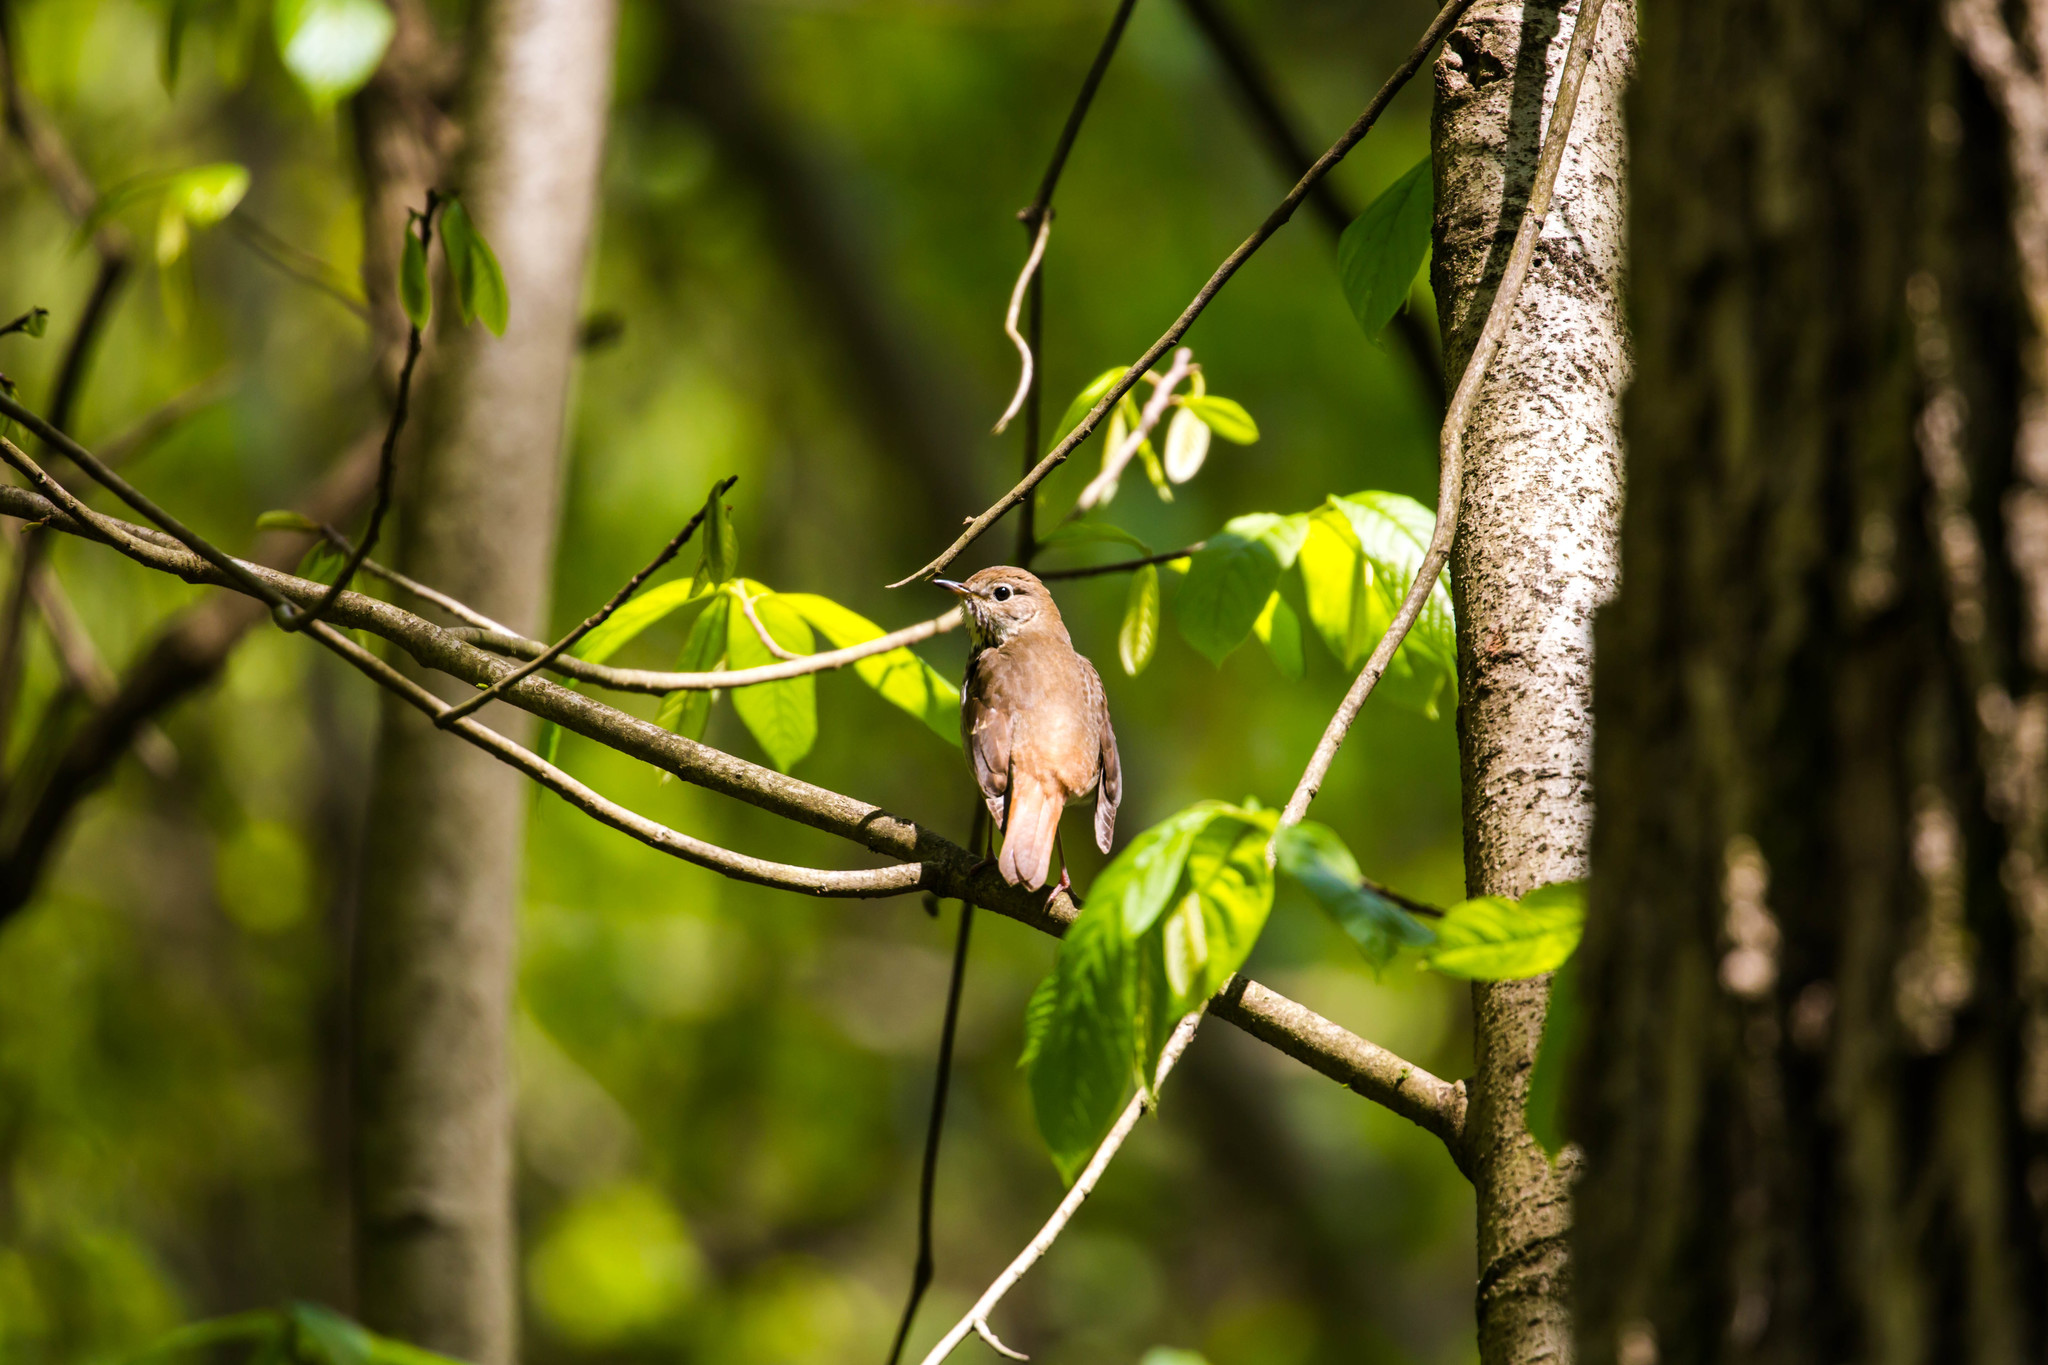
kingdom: Animalia
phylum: Chordata
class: Aves
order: Passeriformes
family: Turdidae
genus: Catharus
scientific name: Catharus guttatus
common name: Hermit thrush
